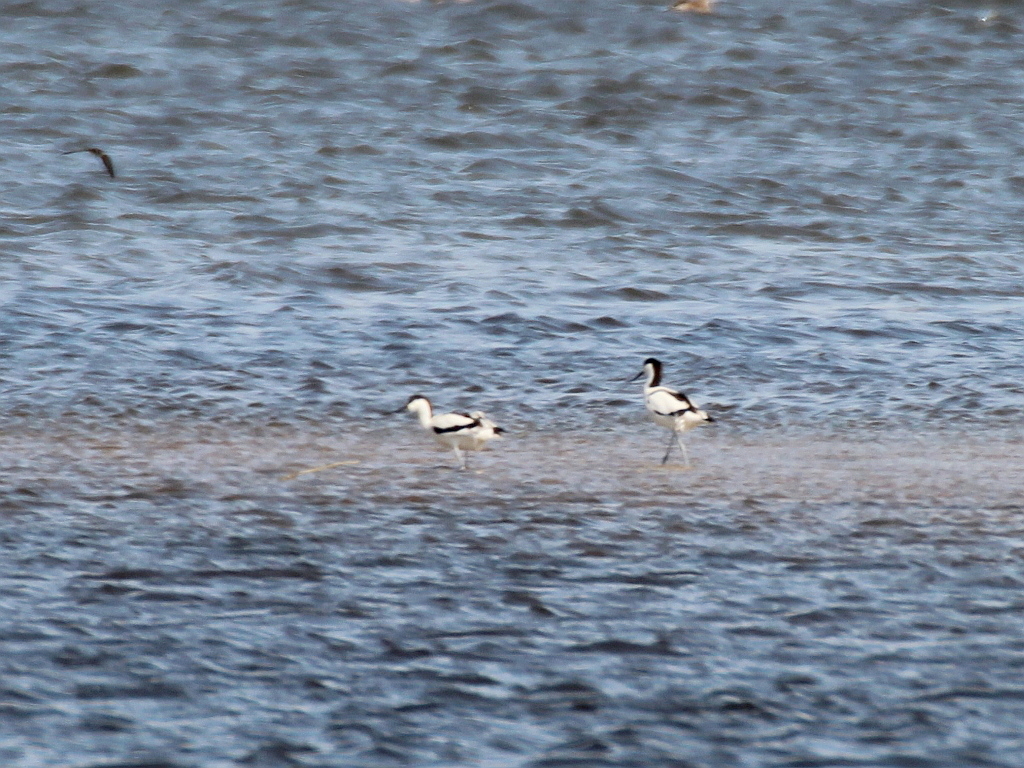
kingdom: Animalia
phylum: Chordata
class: Aves
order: Charadriiformes
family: Recurvirostridae
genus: Recurvirostra
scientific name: Recurvirostra avosetta
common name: Pied avocet
